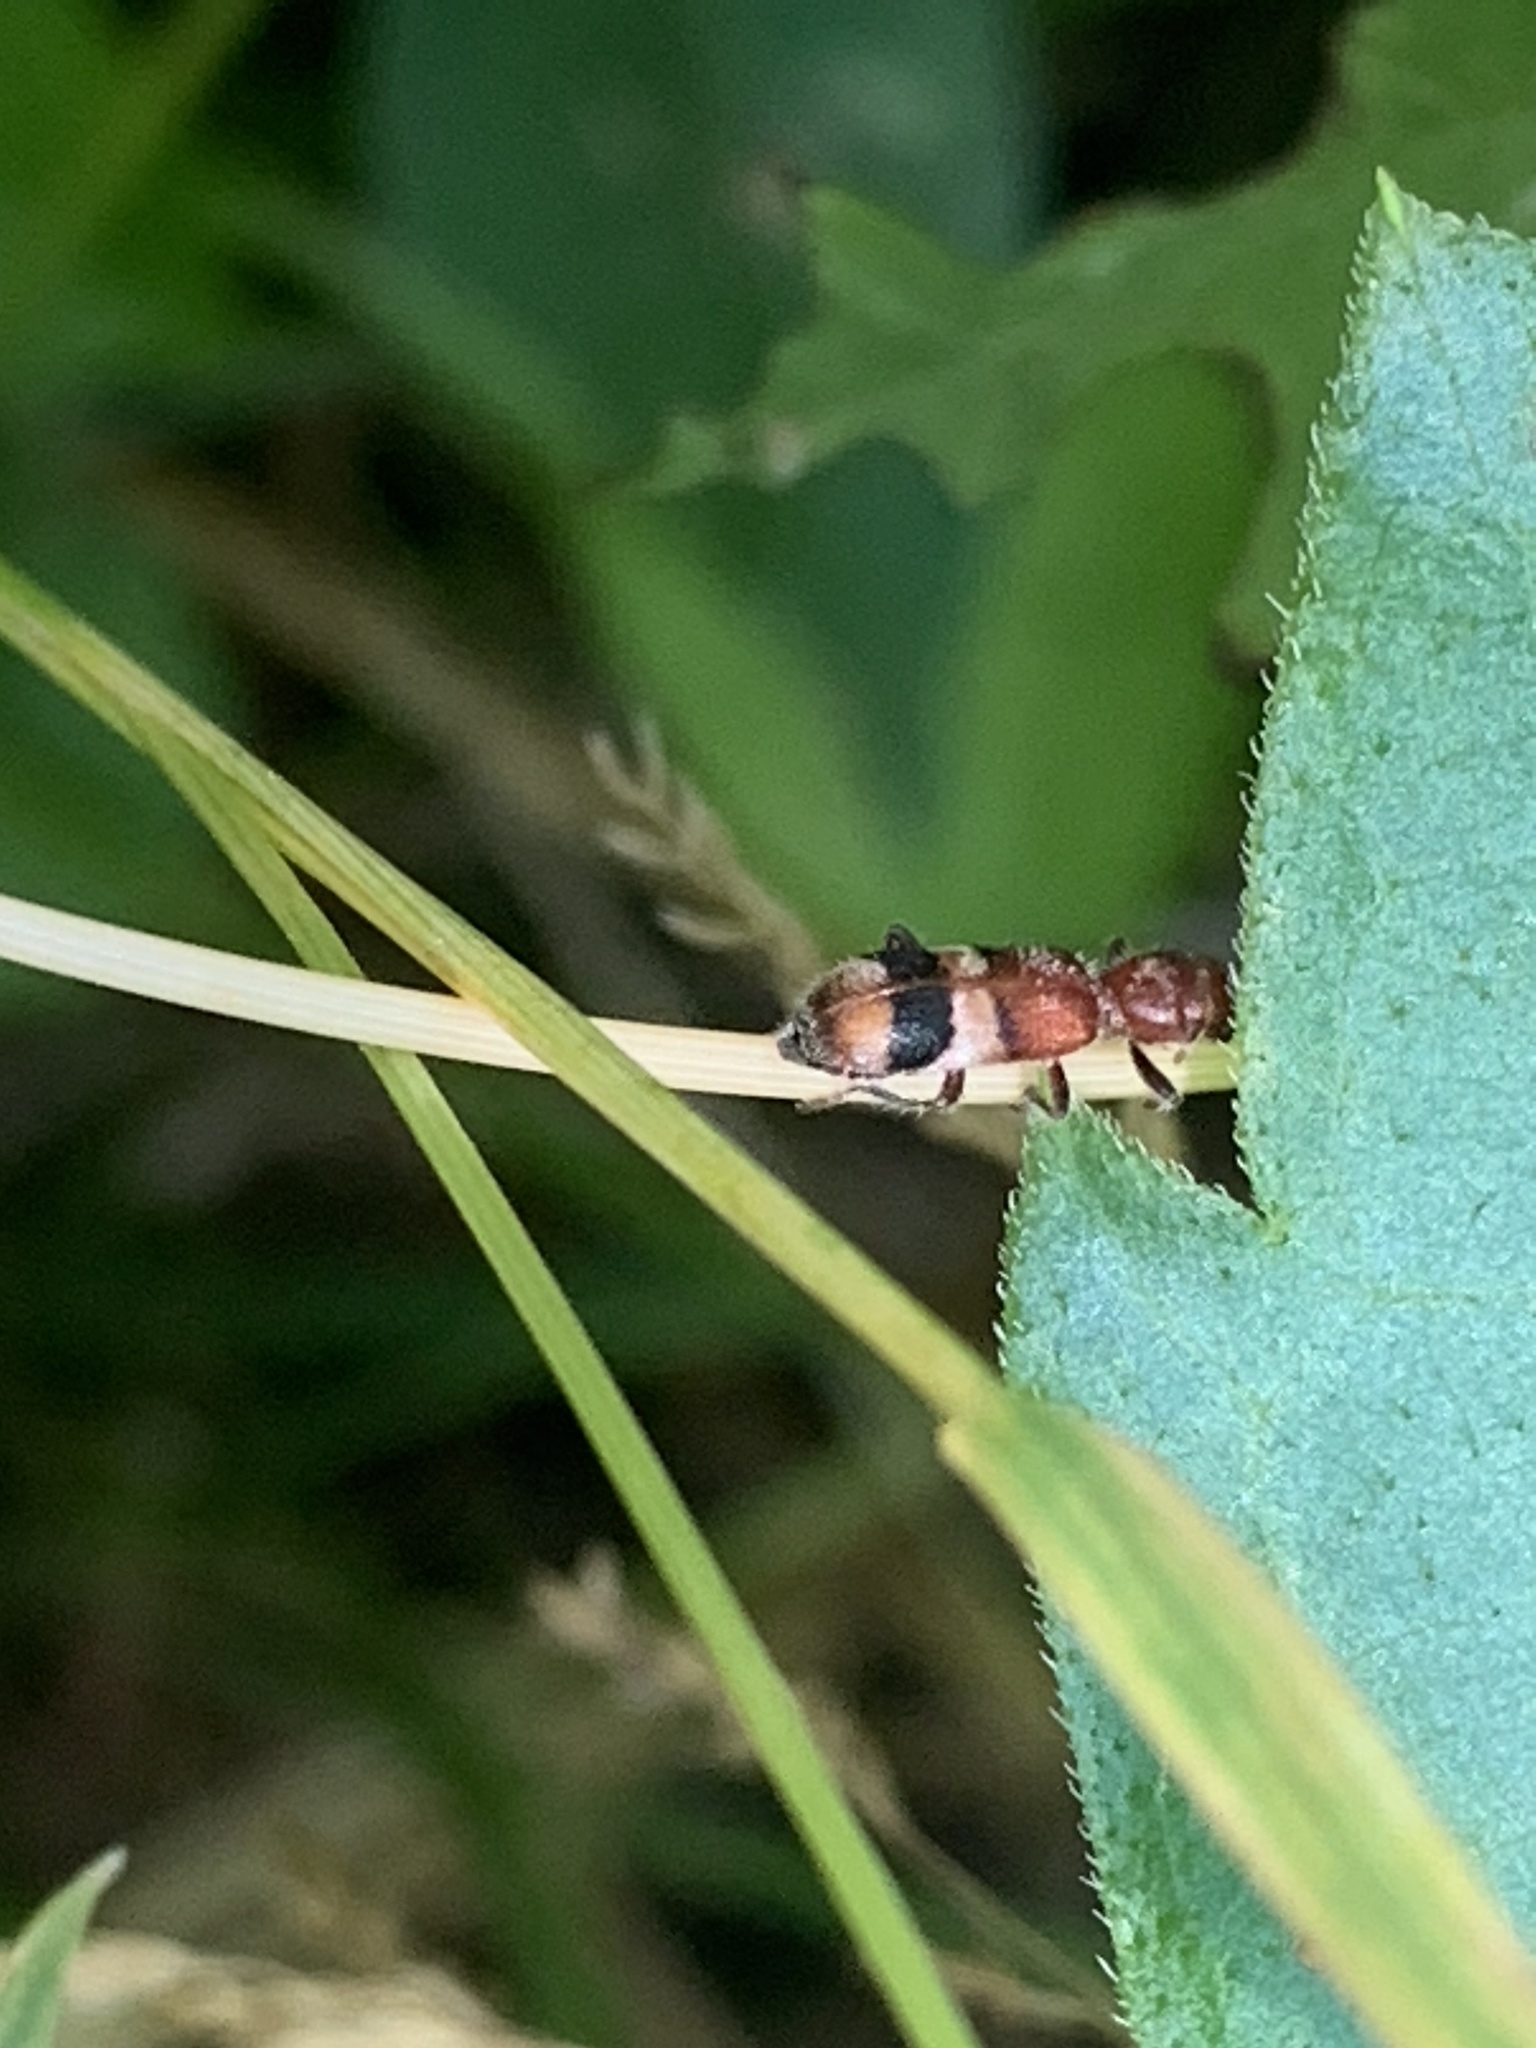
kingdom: Animalia
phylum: Arthropoda
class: Insecta
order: Coleoptera
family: Cleridae
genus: Enoclerus
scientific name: Enoclerus rosmarus
